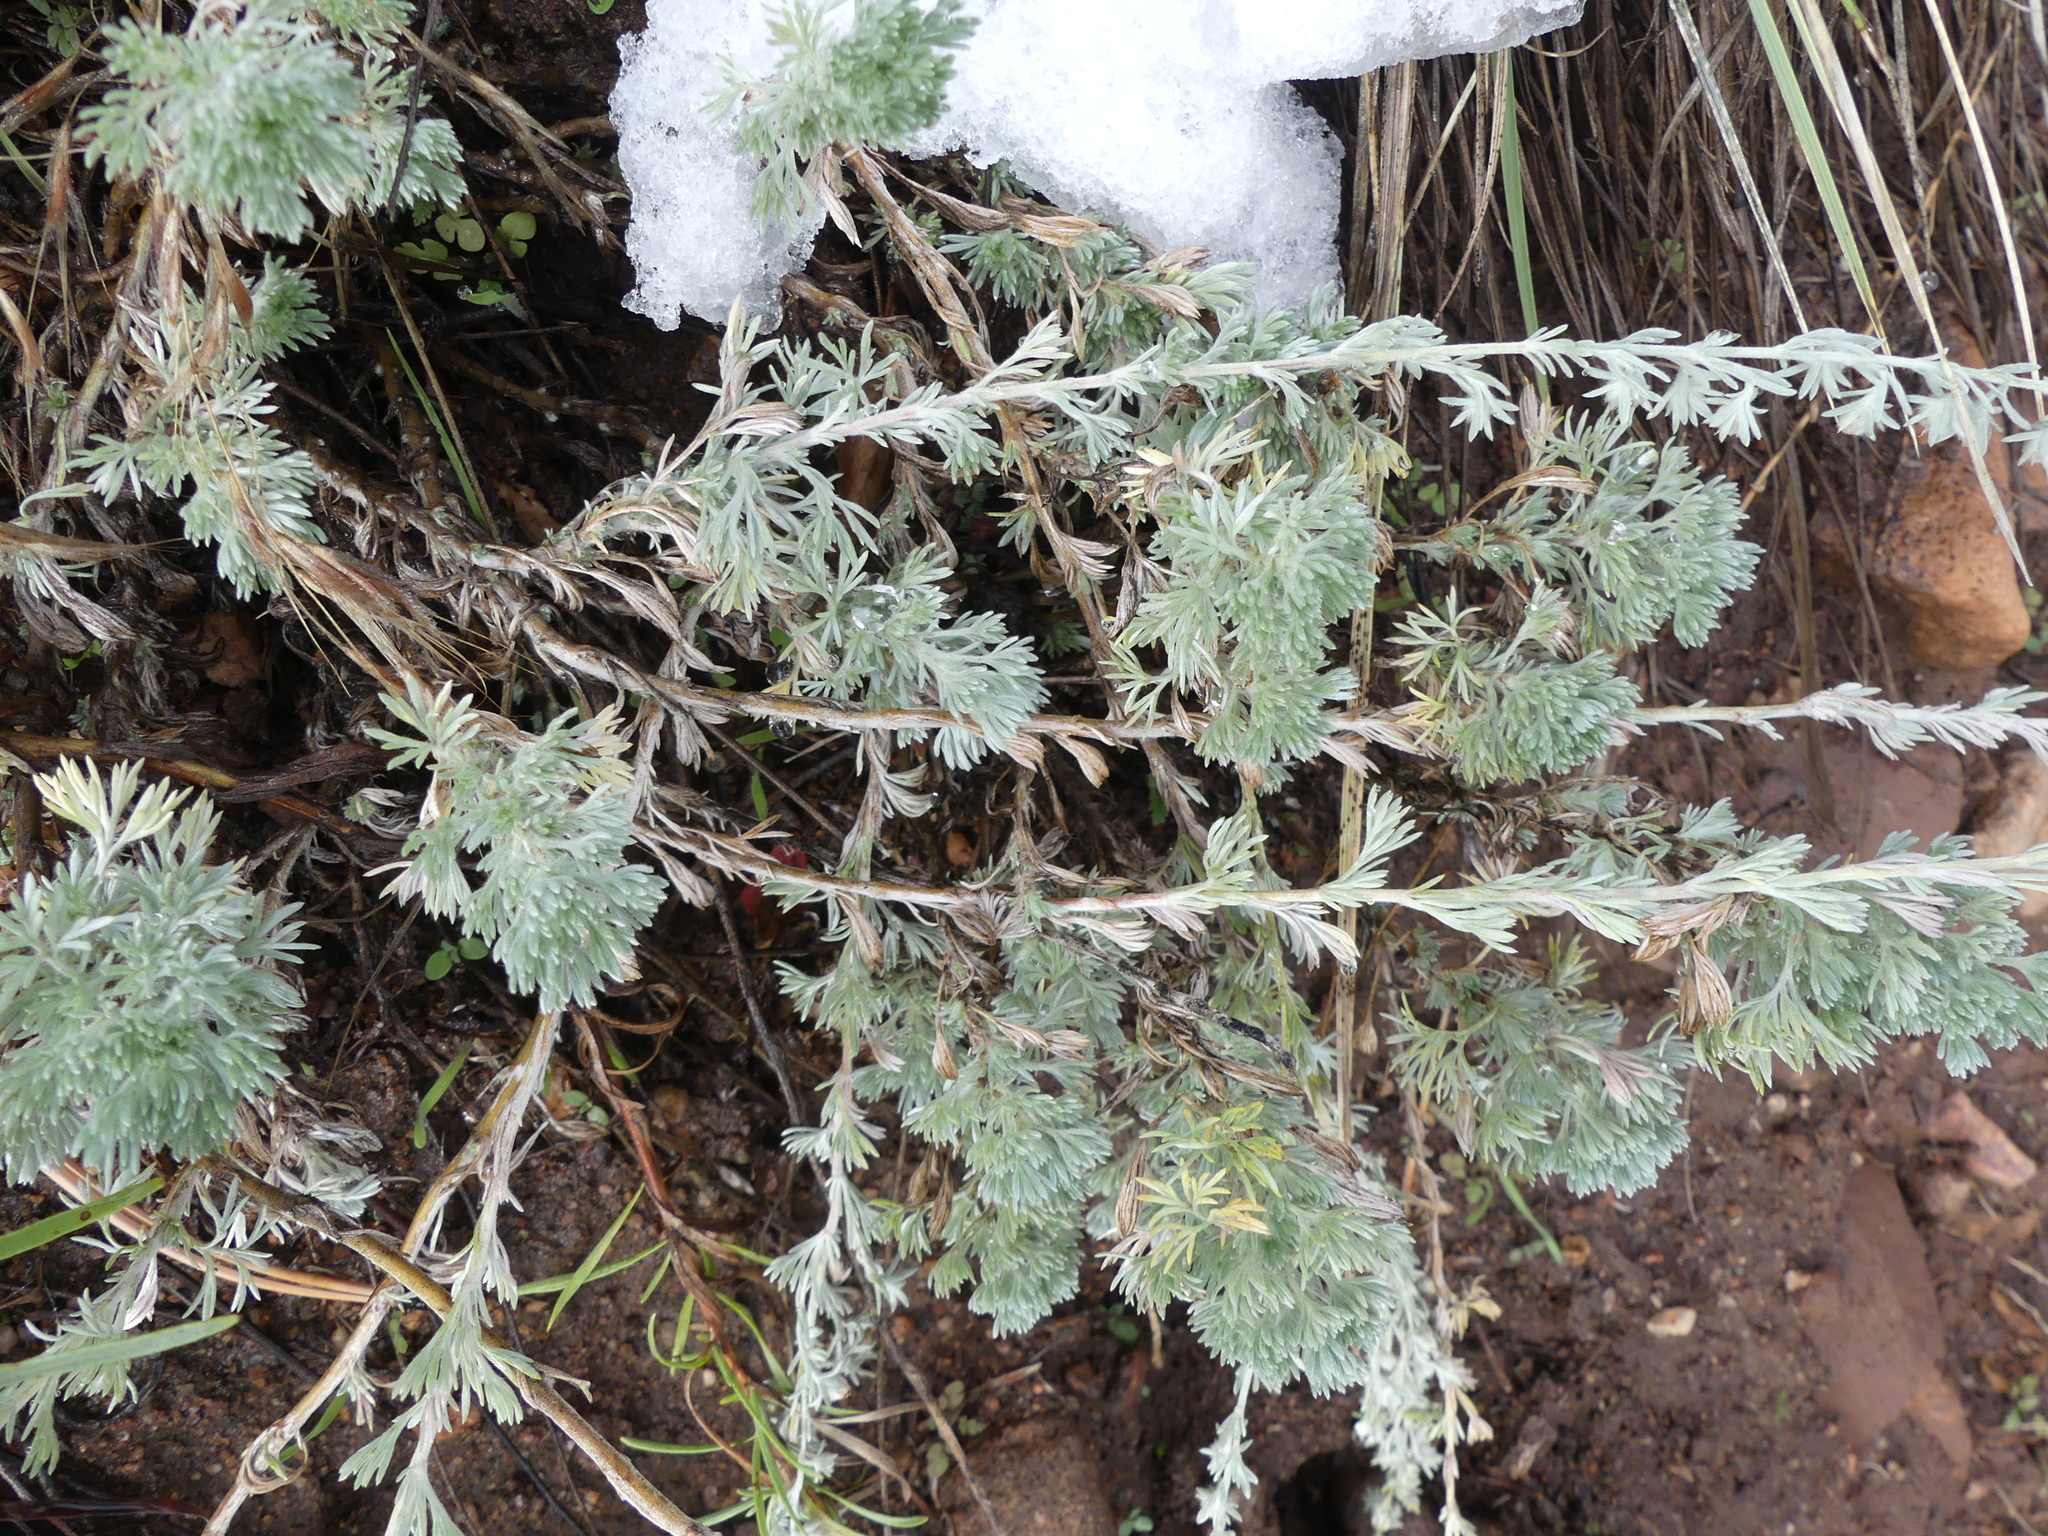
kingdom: Plantae
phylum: Tracheophyta
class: Magnoliopsida
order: Asterales
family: Asteraceae
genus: Artemisia
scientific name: Artemisia frigida
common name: Prairie sagewort
